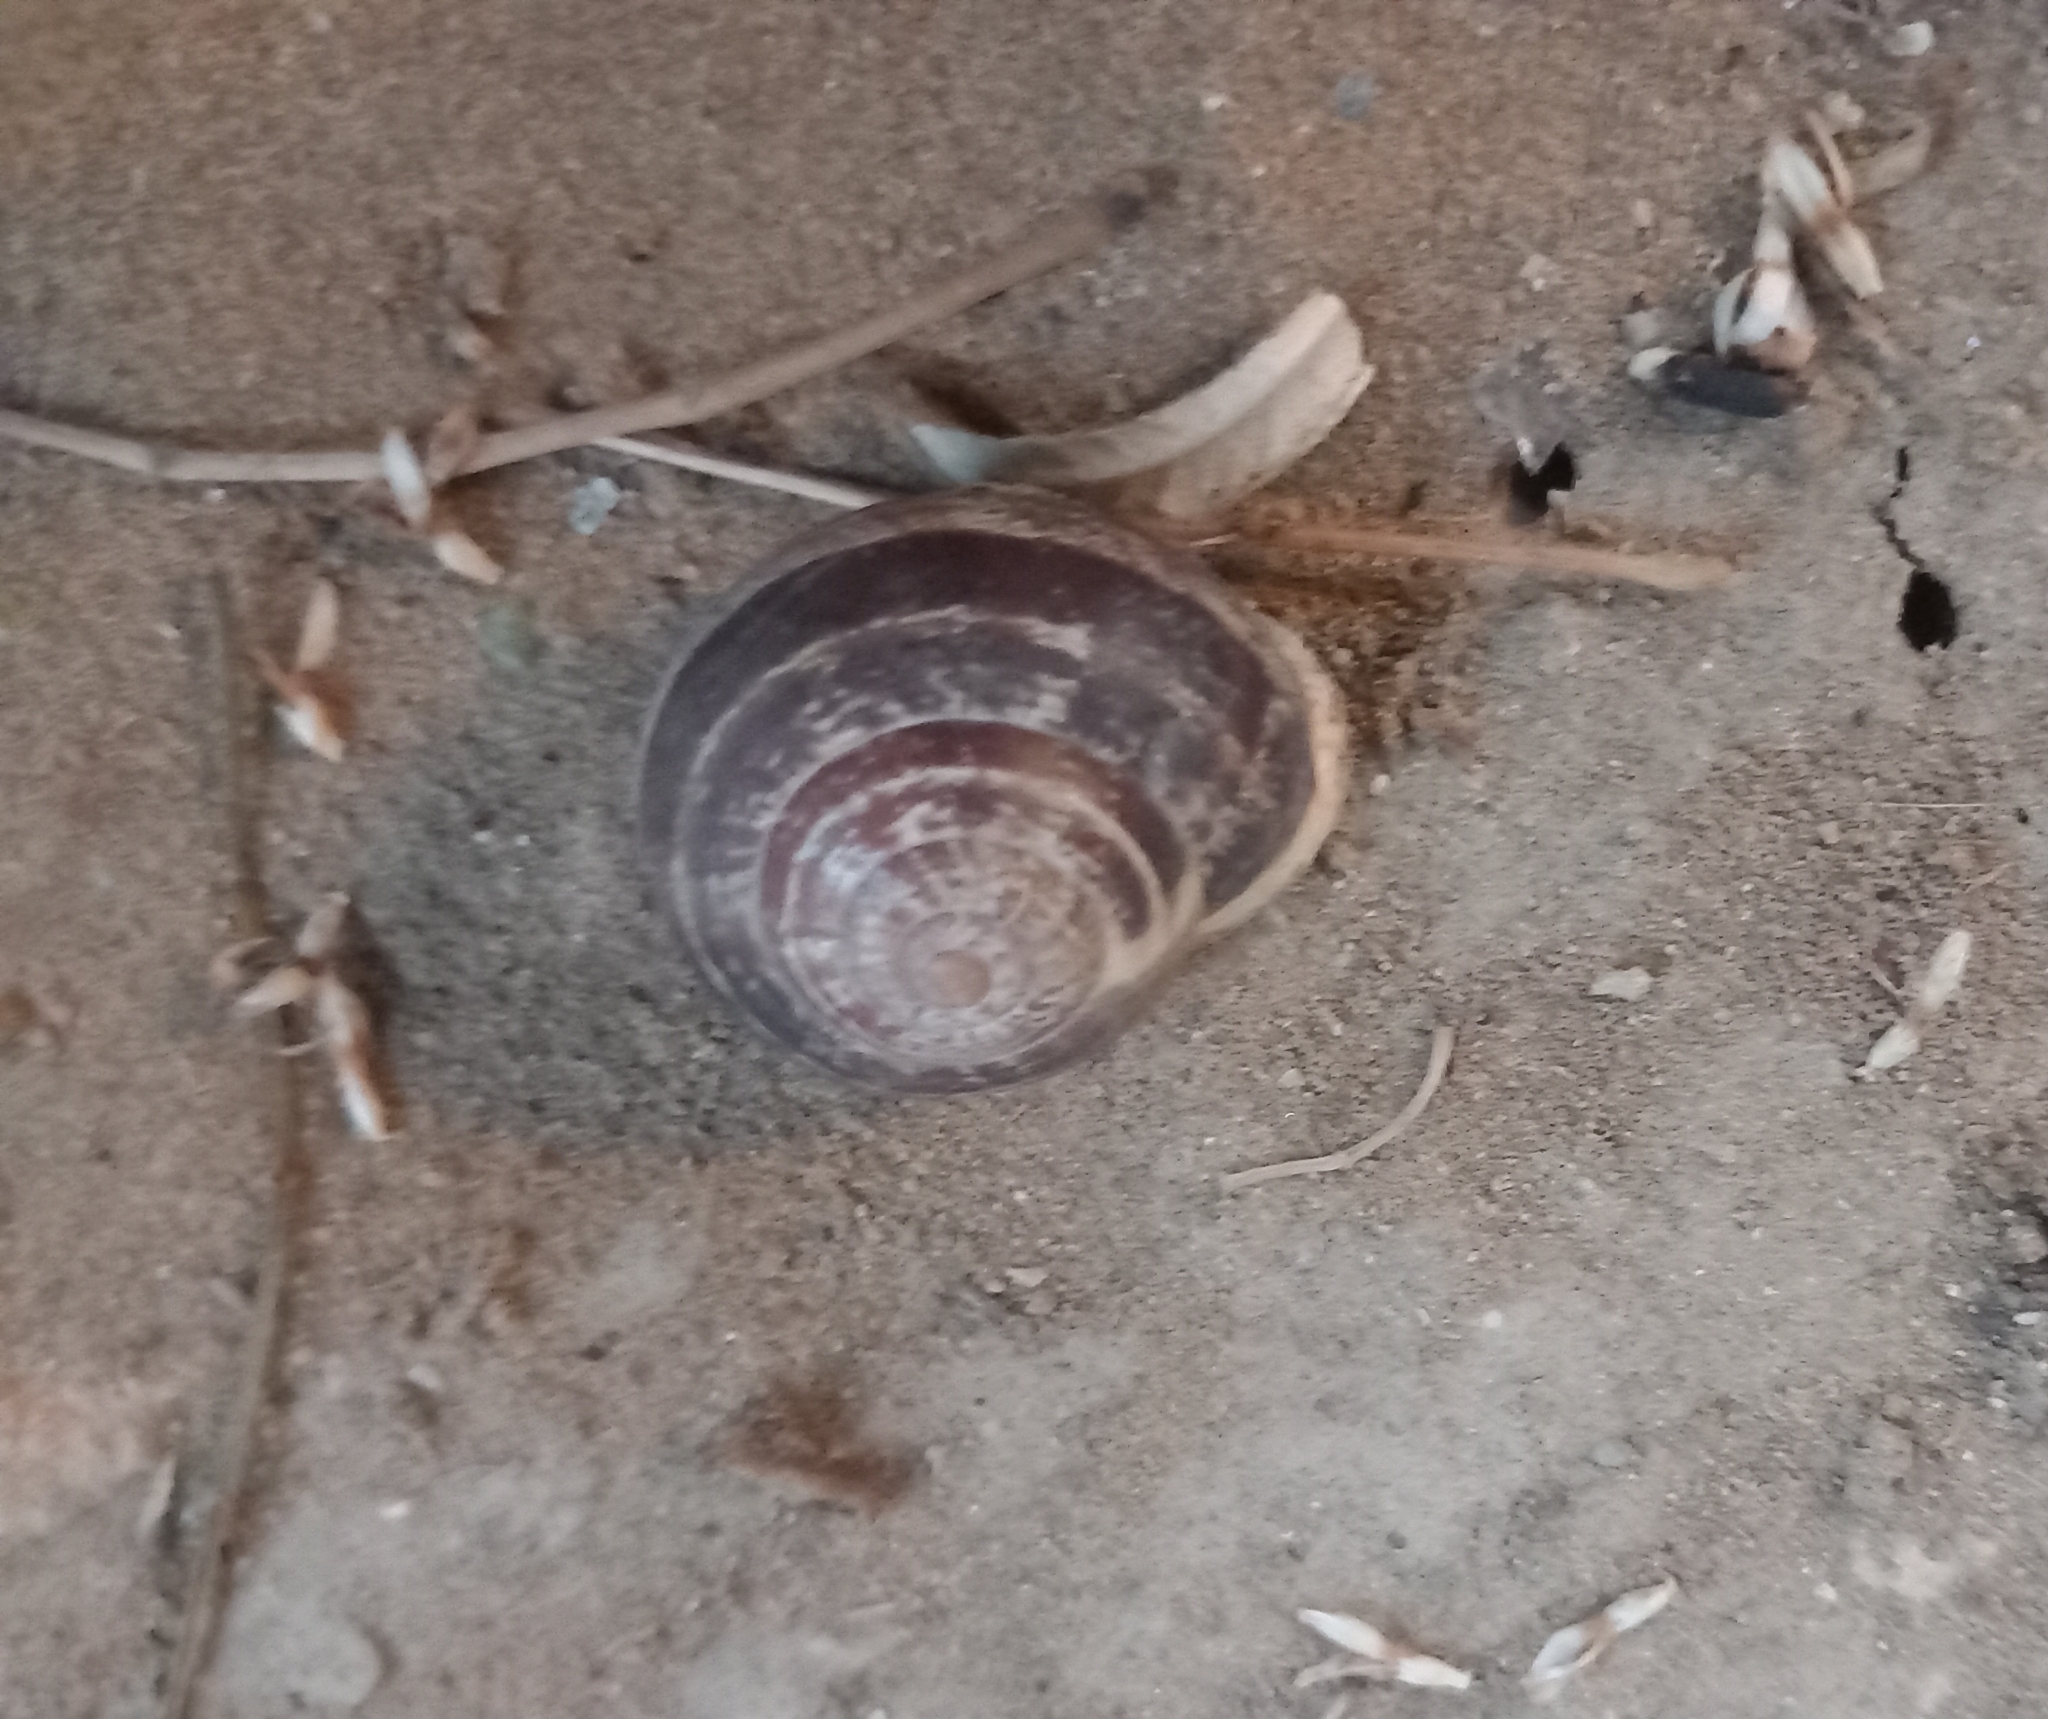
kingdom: Animalia
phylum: Mollusca
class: Gastropoda
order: Stylommatophora
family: Helicidae
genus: Eobania
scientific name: Eobania vermiculata
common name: Chocolateband snail
